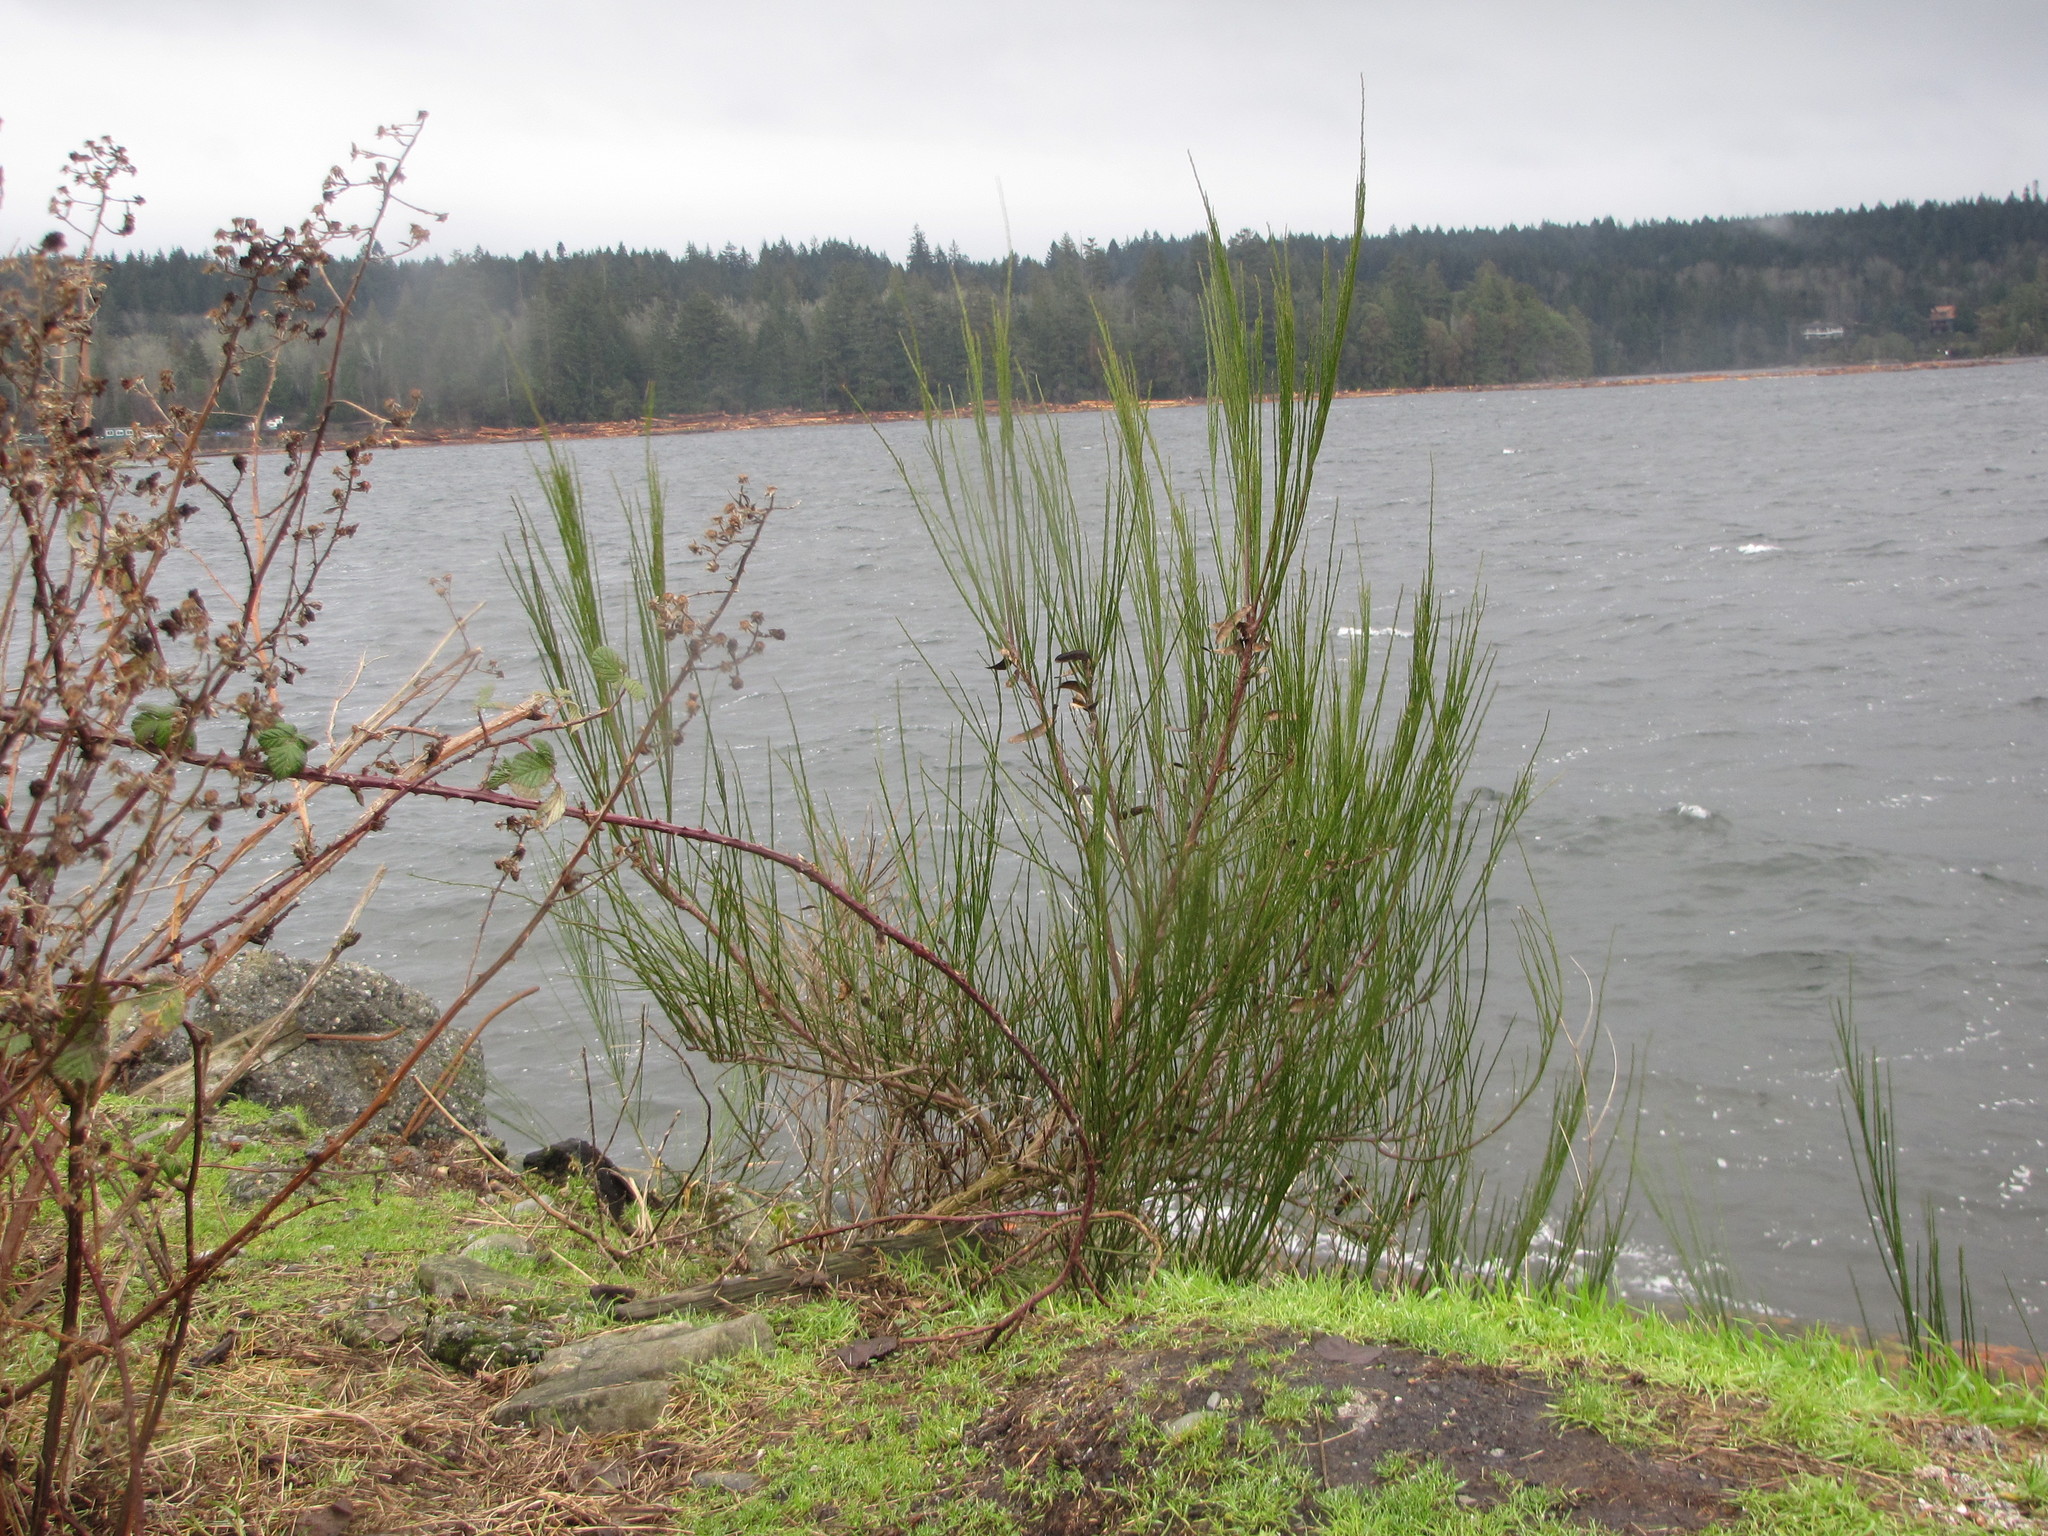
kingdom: Plantae
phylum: Tracheophyta
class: Magnoliopsida
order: Fabales
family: Fabaceae
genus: Cytisus
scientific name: Cytisus scoparius
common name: Scotch broom
